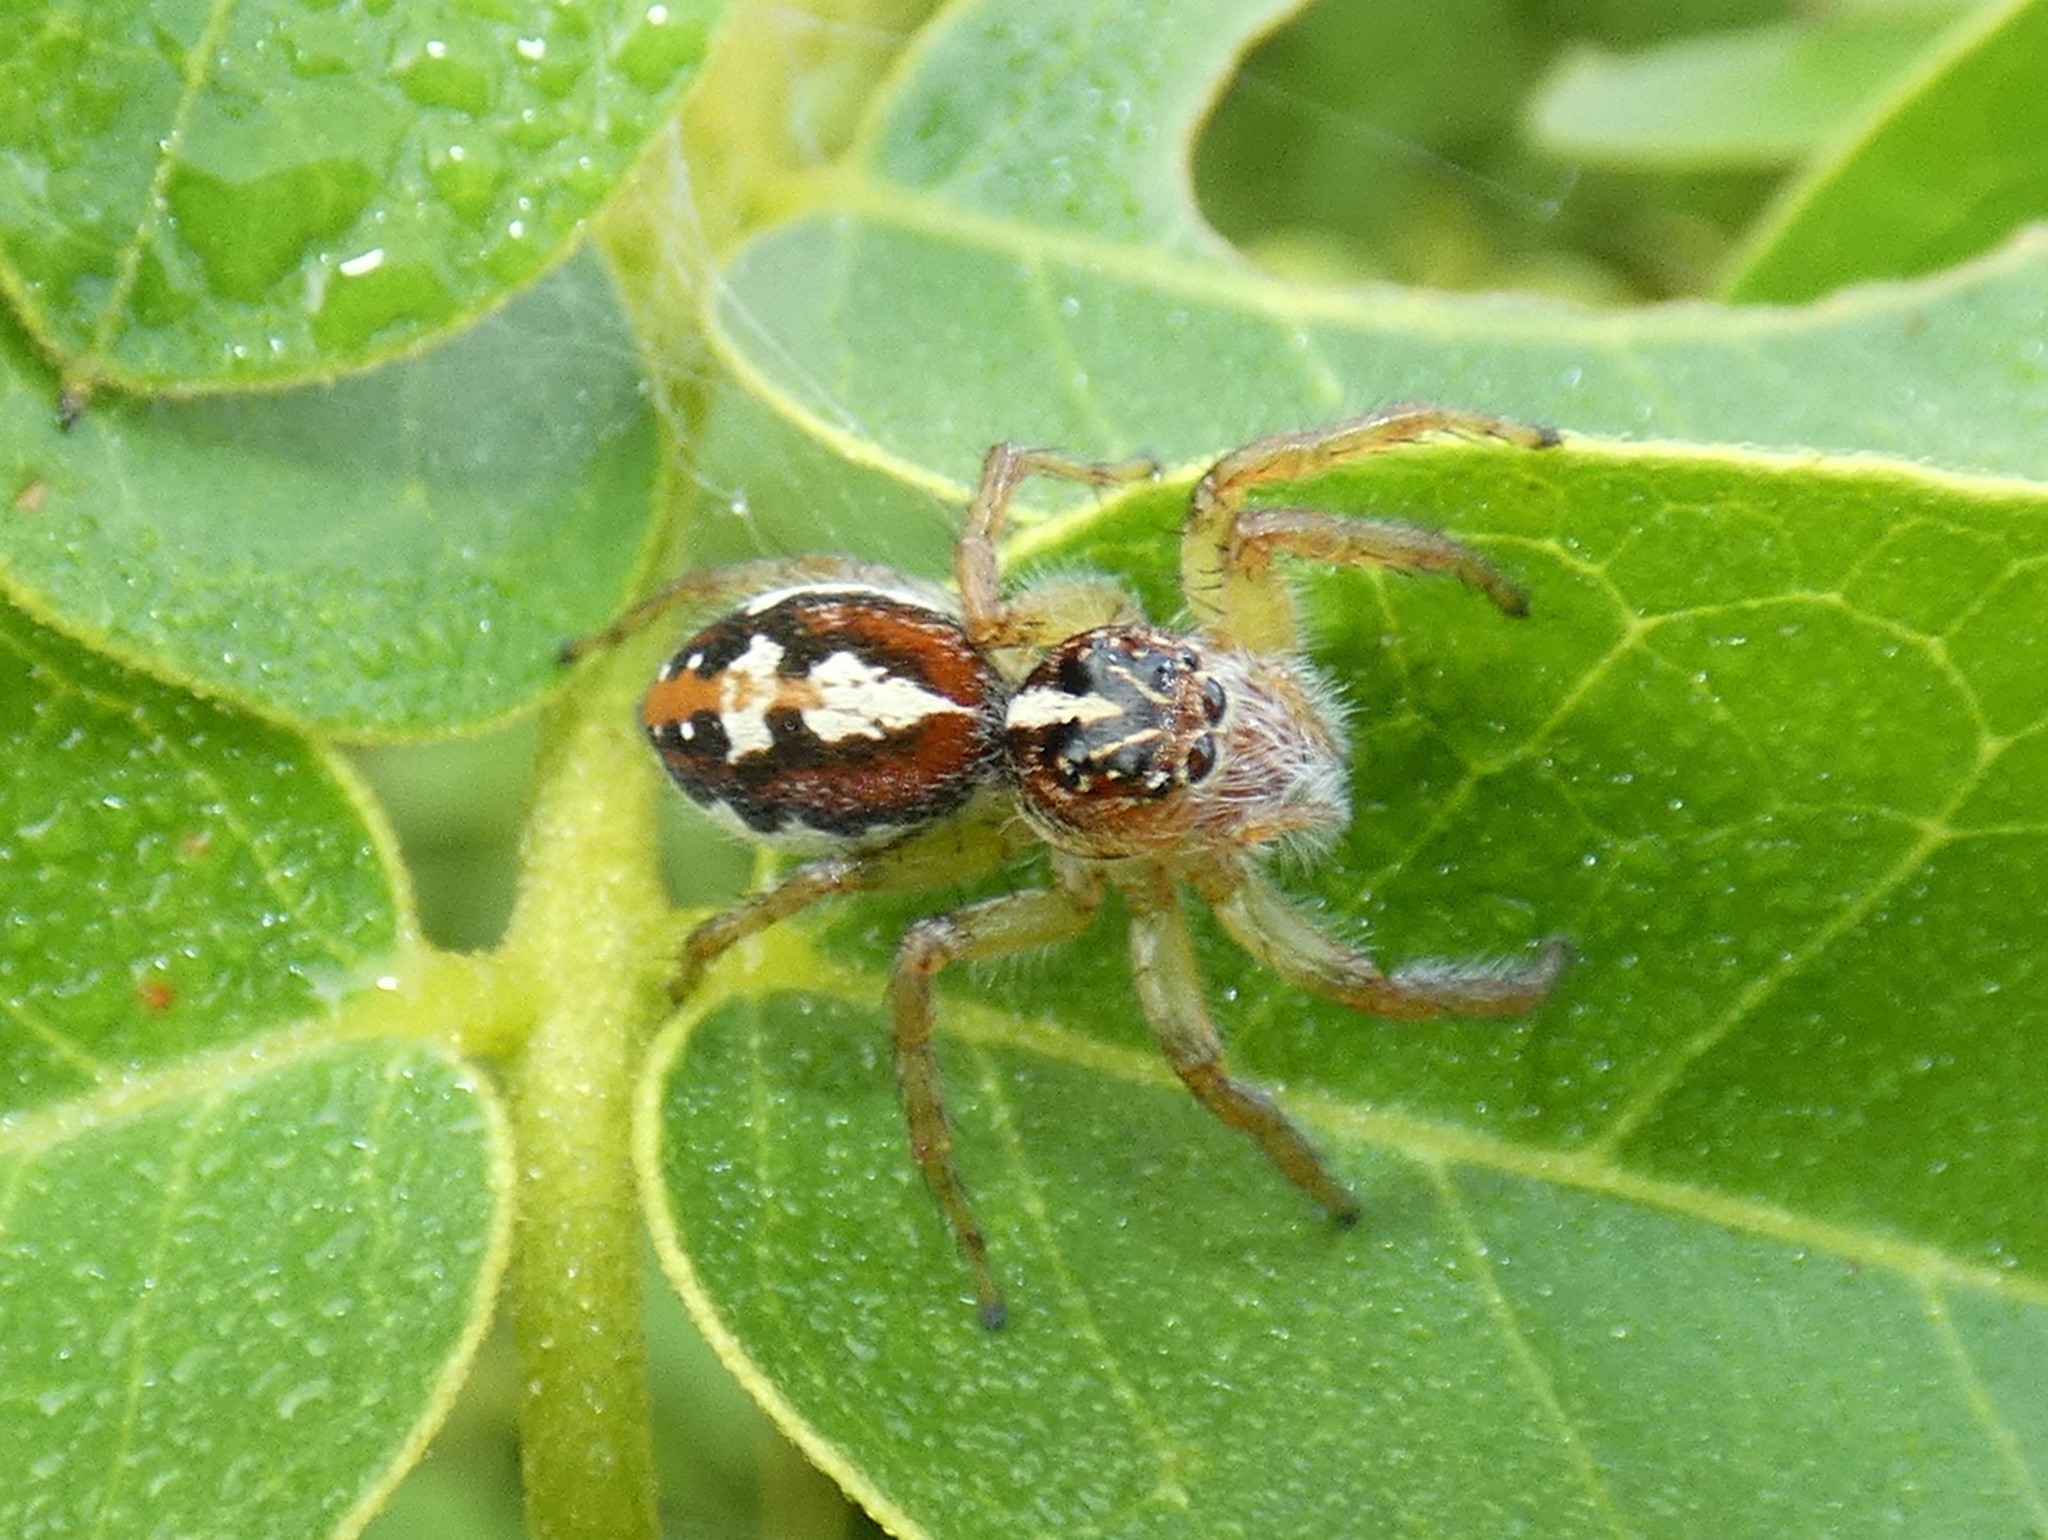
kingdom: Animalia
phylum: Arthropoda
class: Arachnida
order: Araneae
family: Salticidae
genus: Frigga
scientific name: Frigga pratensis
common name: Jumping spiders
